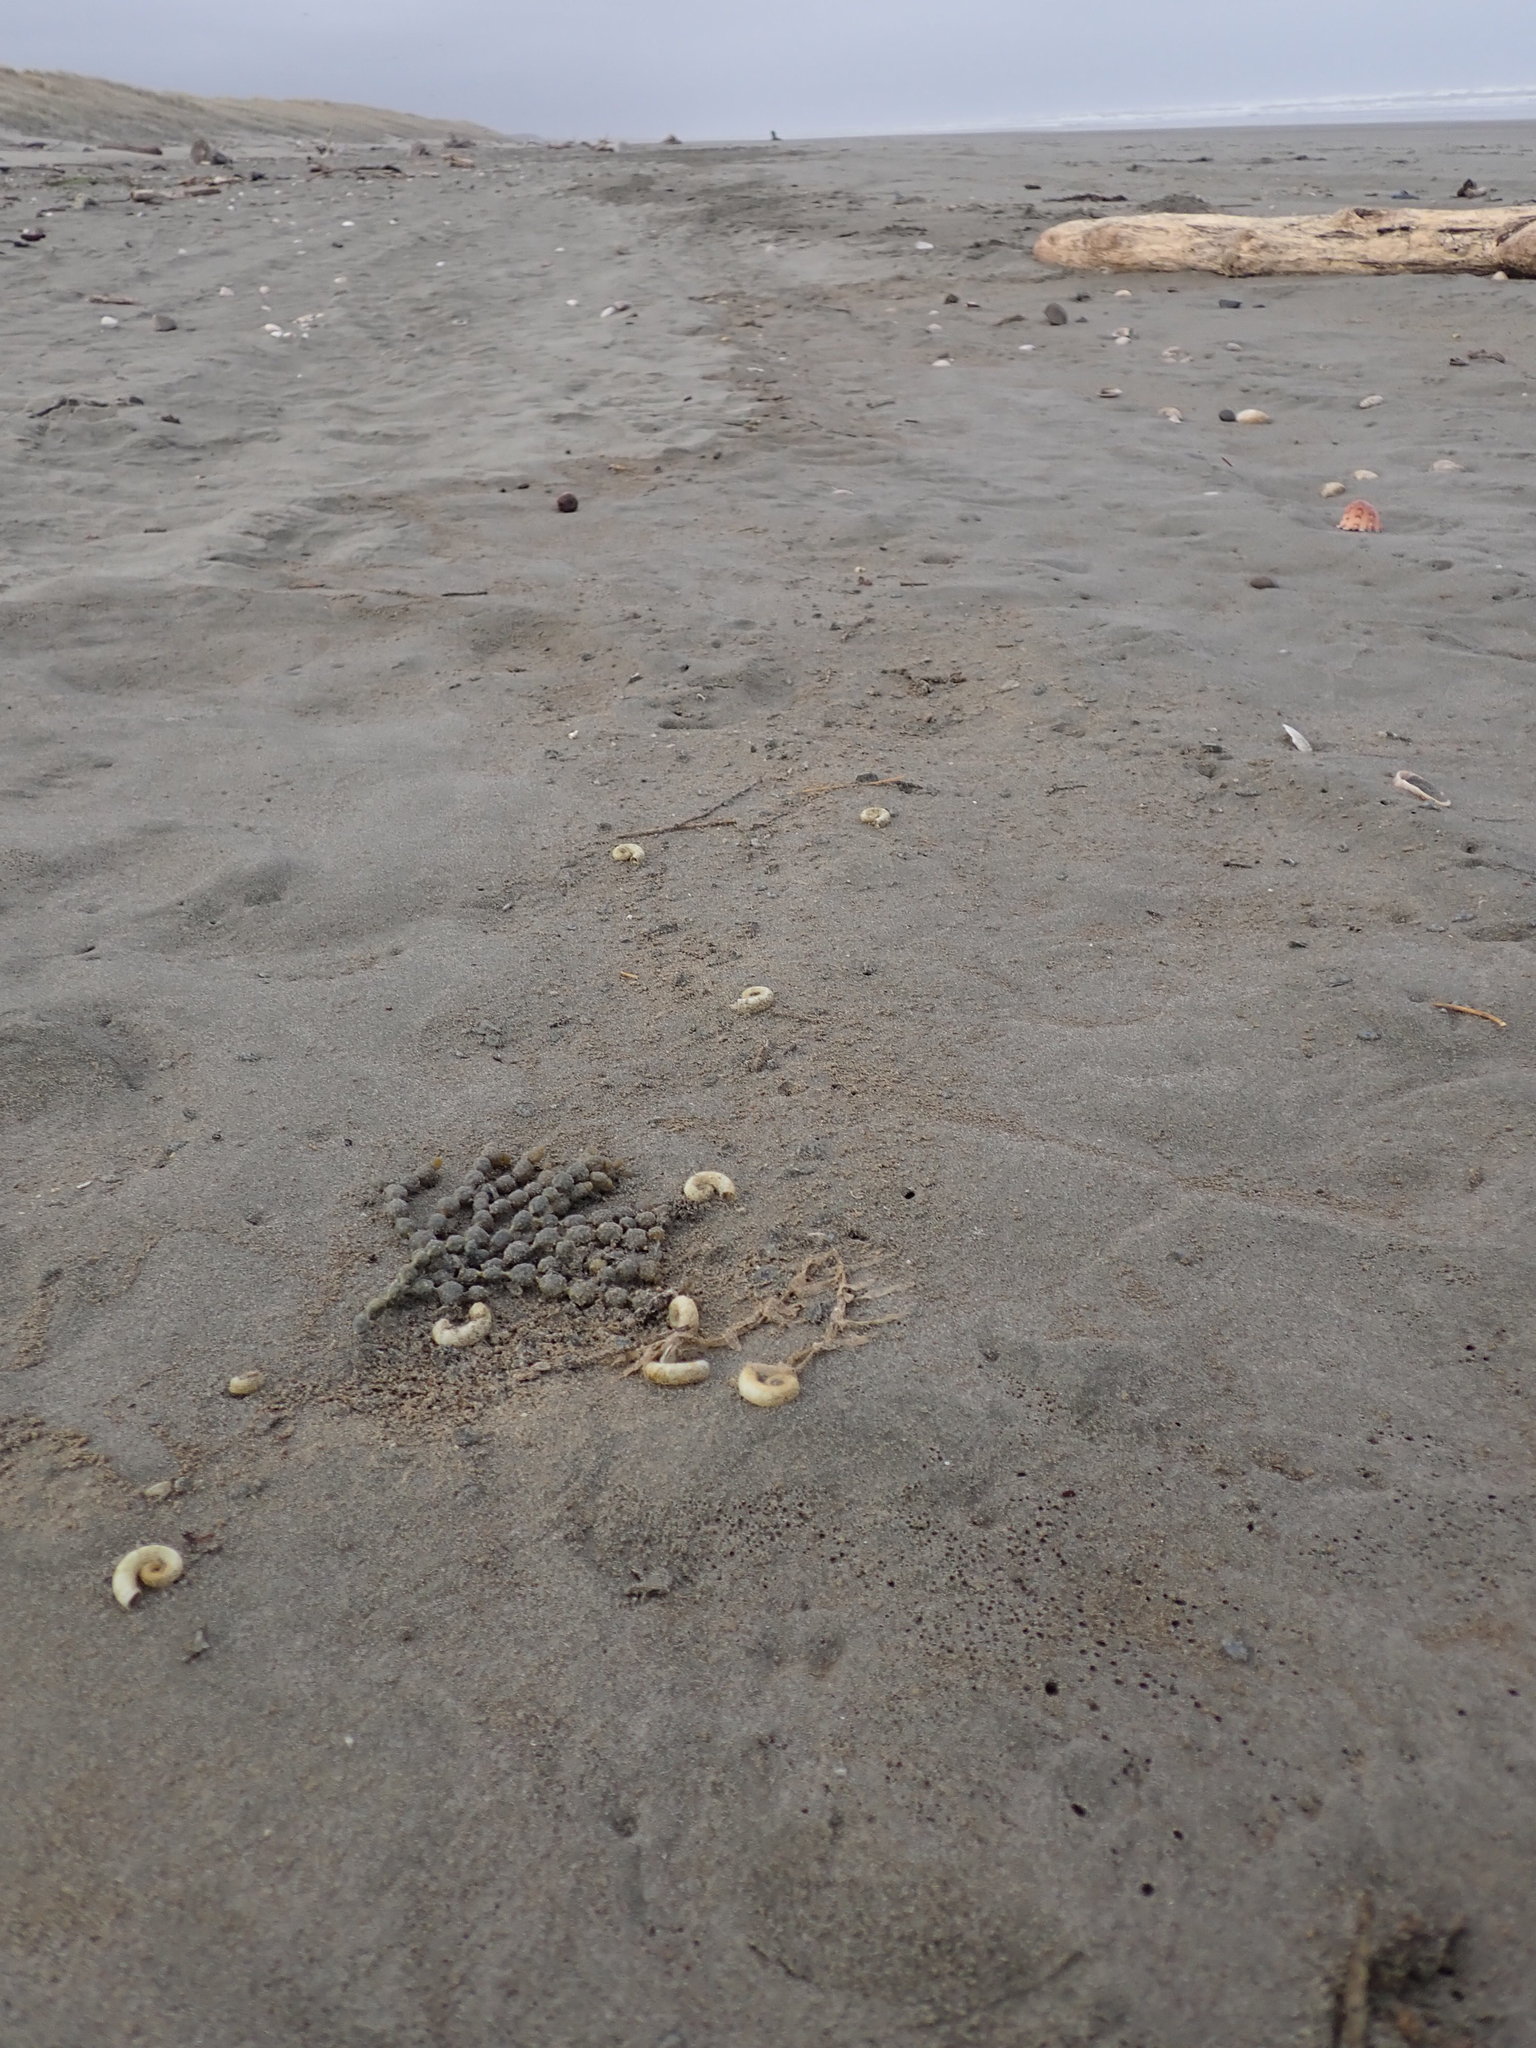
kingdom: Animalia
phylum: Mollusca
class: Cephalopoda
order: Spirulida
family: Spirulidae
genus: Spirula
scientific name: Spirula spirula
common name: Ram's horn squid
